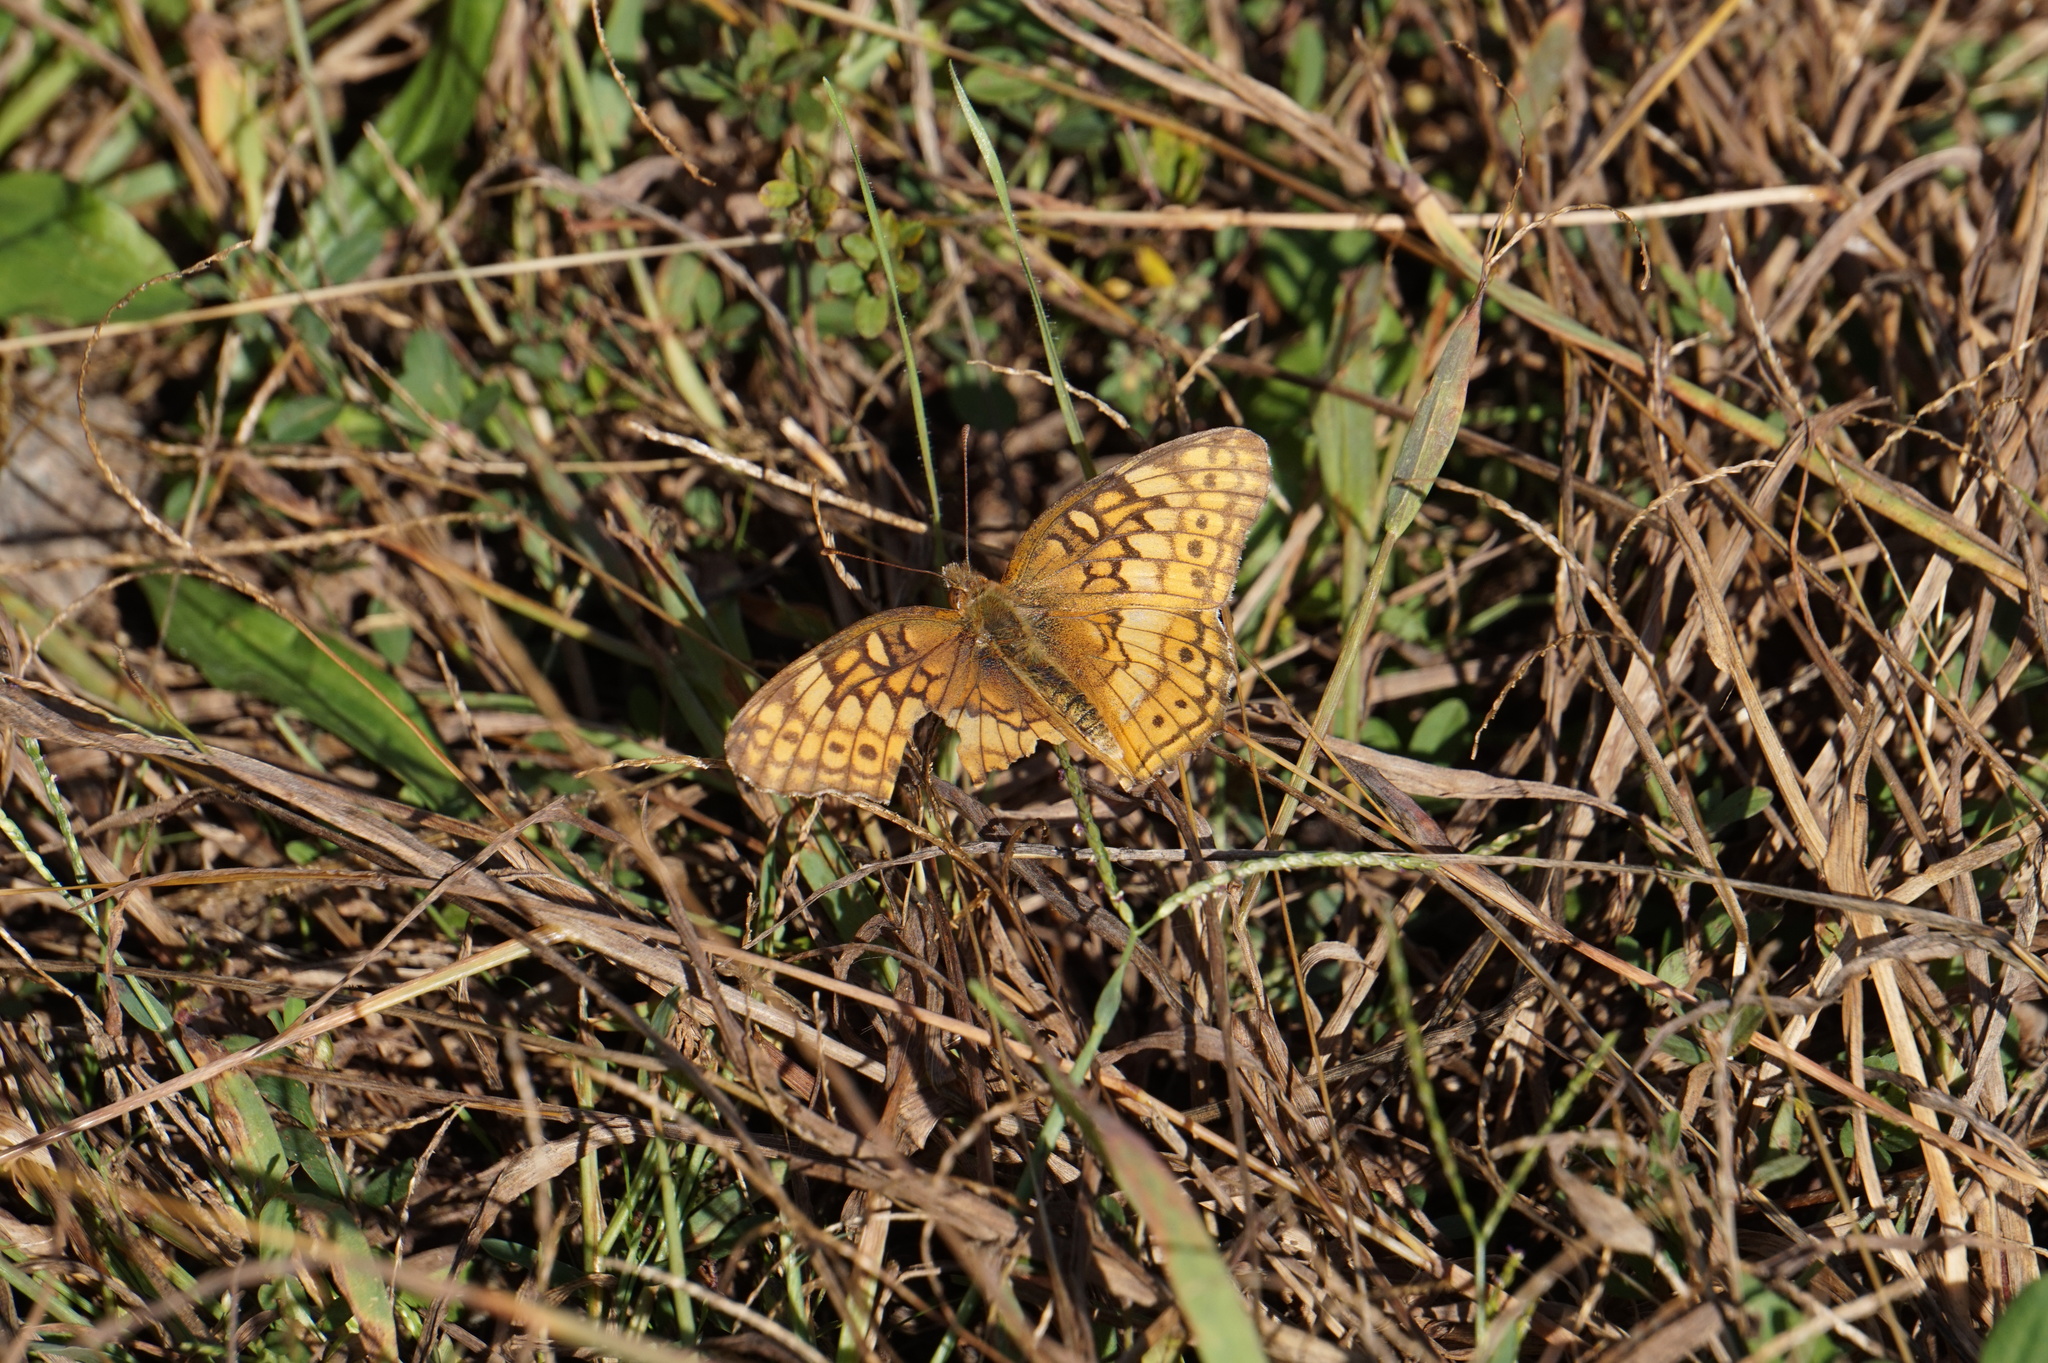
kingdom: Animalia
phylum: Arthropoda
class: Insecta
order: Lepidoptera
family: Nymphalidae
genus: Euptoieta
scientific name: Euptoieta claudia
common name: Variegated fritillary
